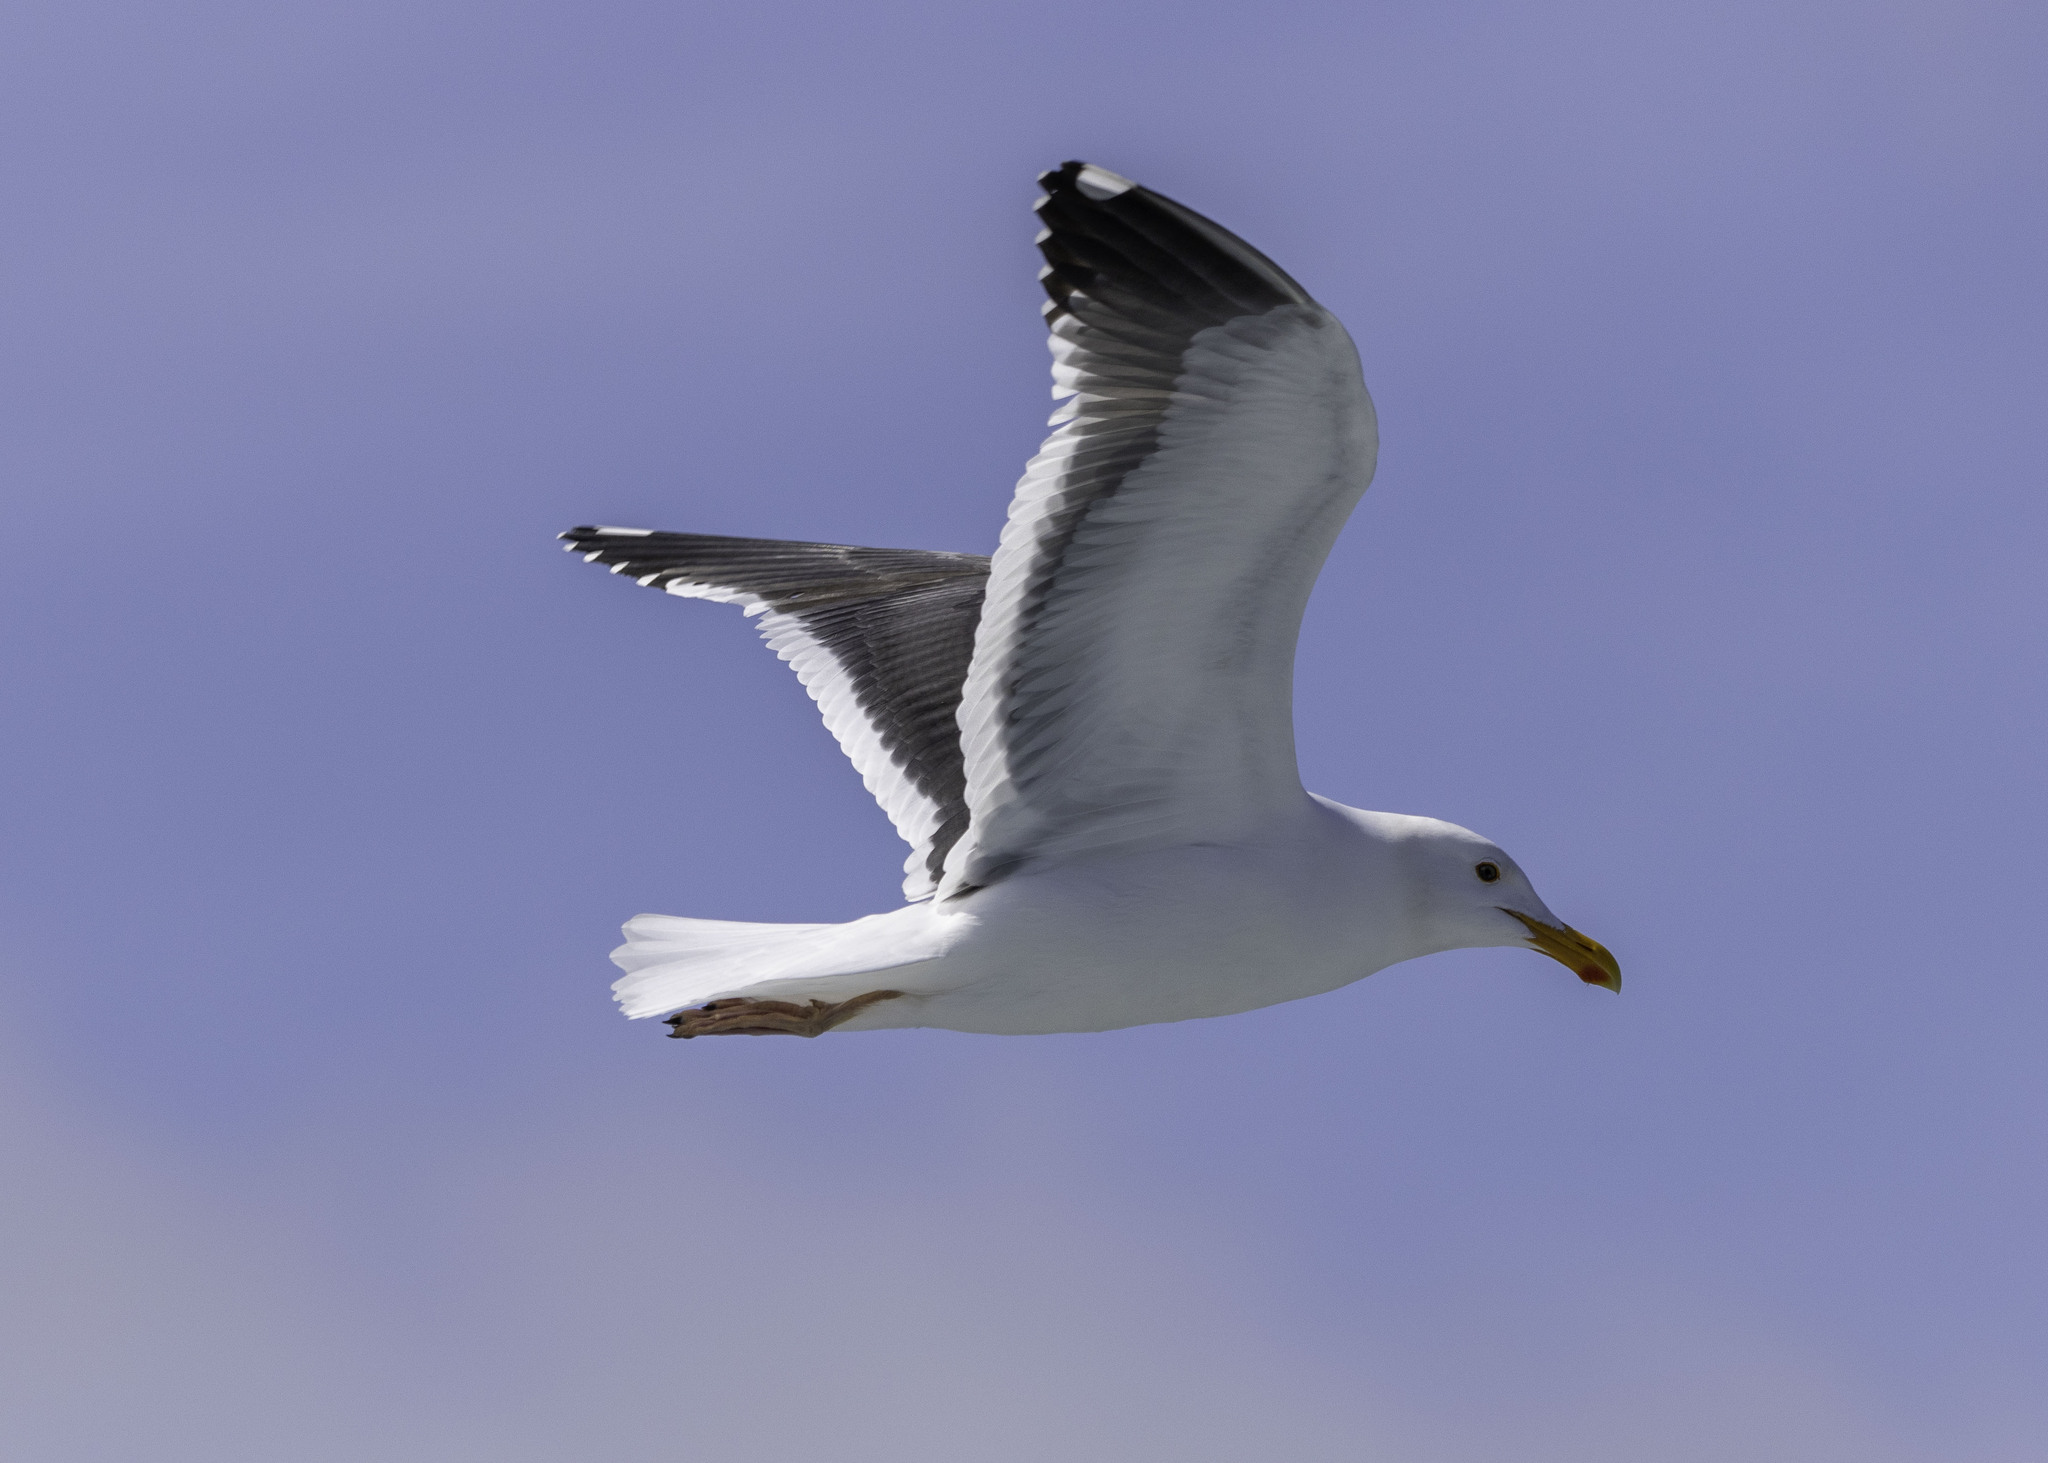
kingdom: Animalia
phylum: Chordata
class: Aves
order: Charadriiformes
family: Laridae
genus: Larus
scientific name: Larus occidentalis
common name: Western gull
